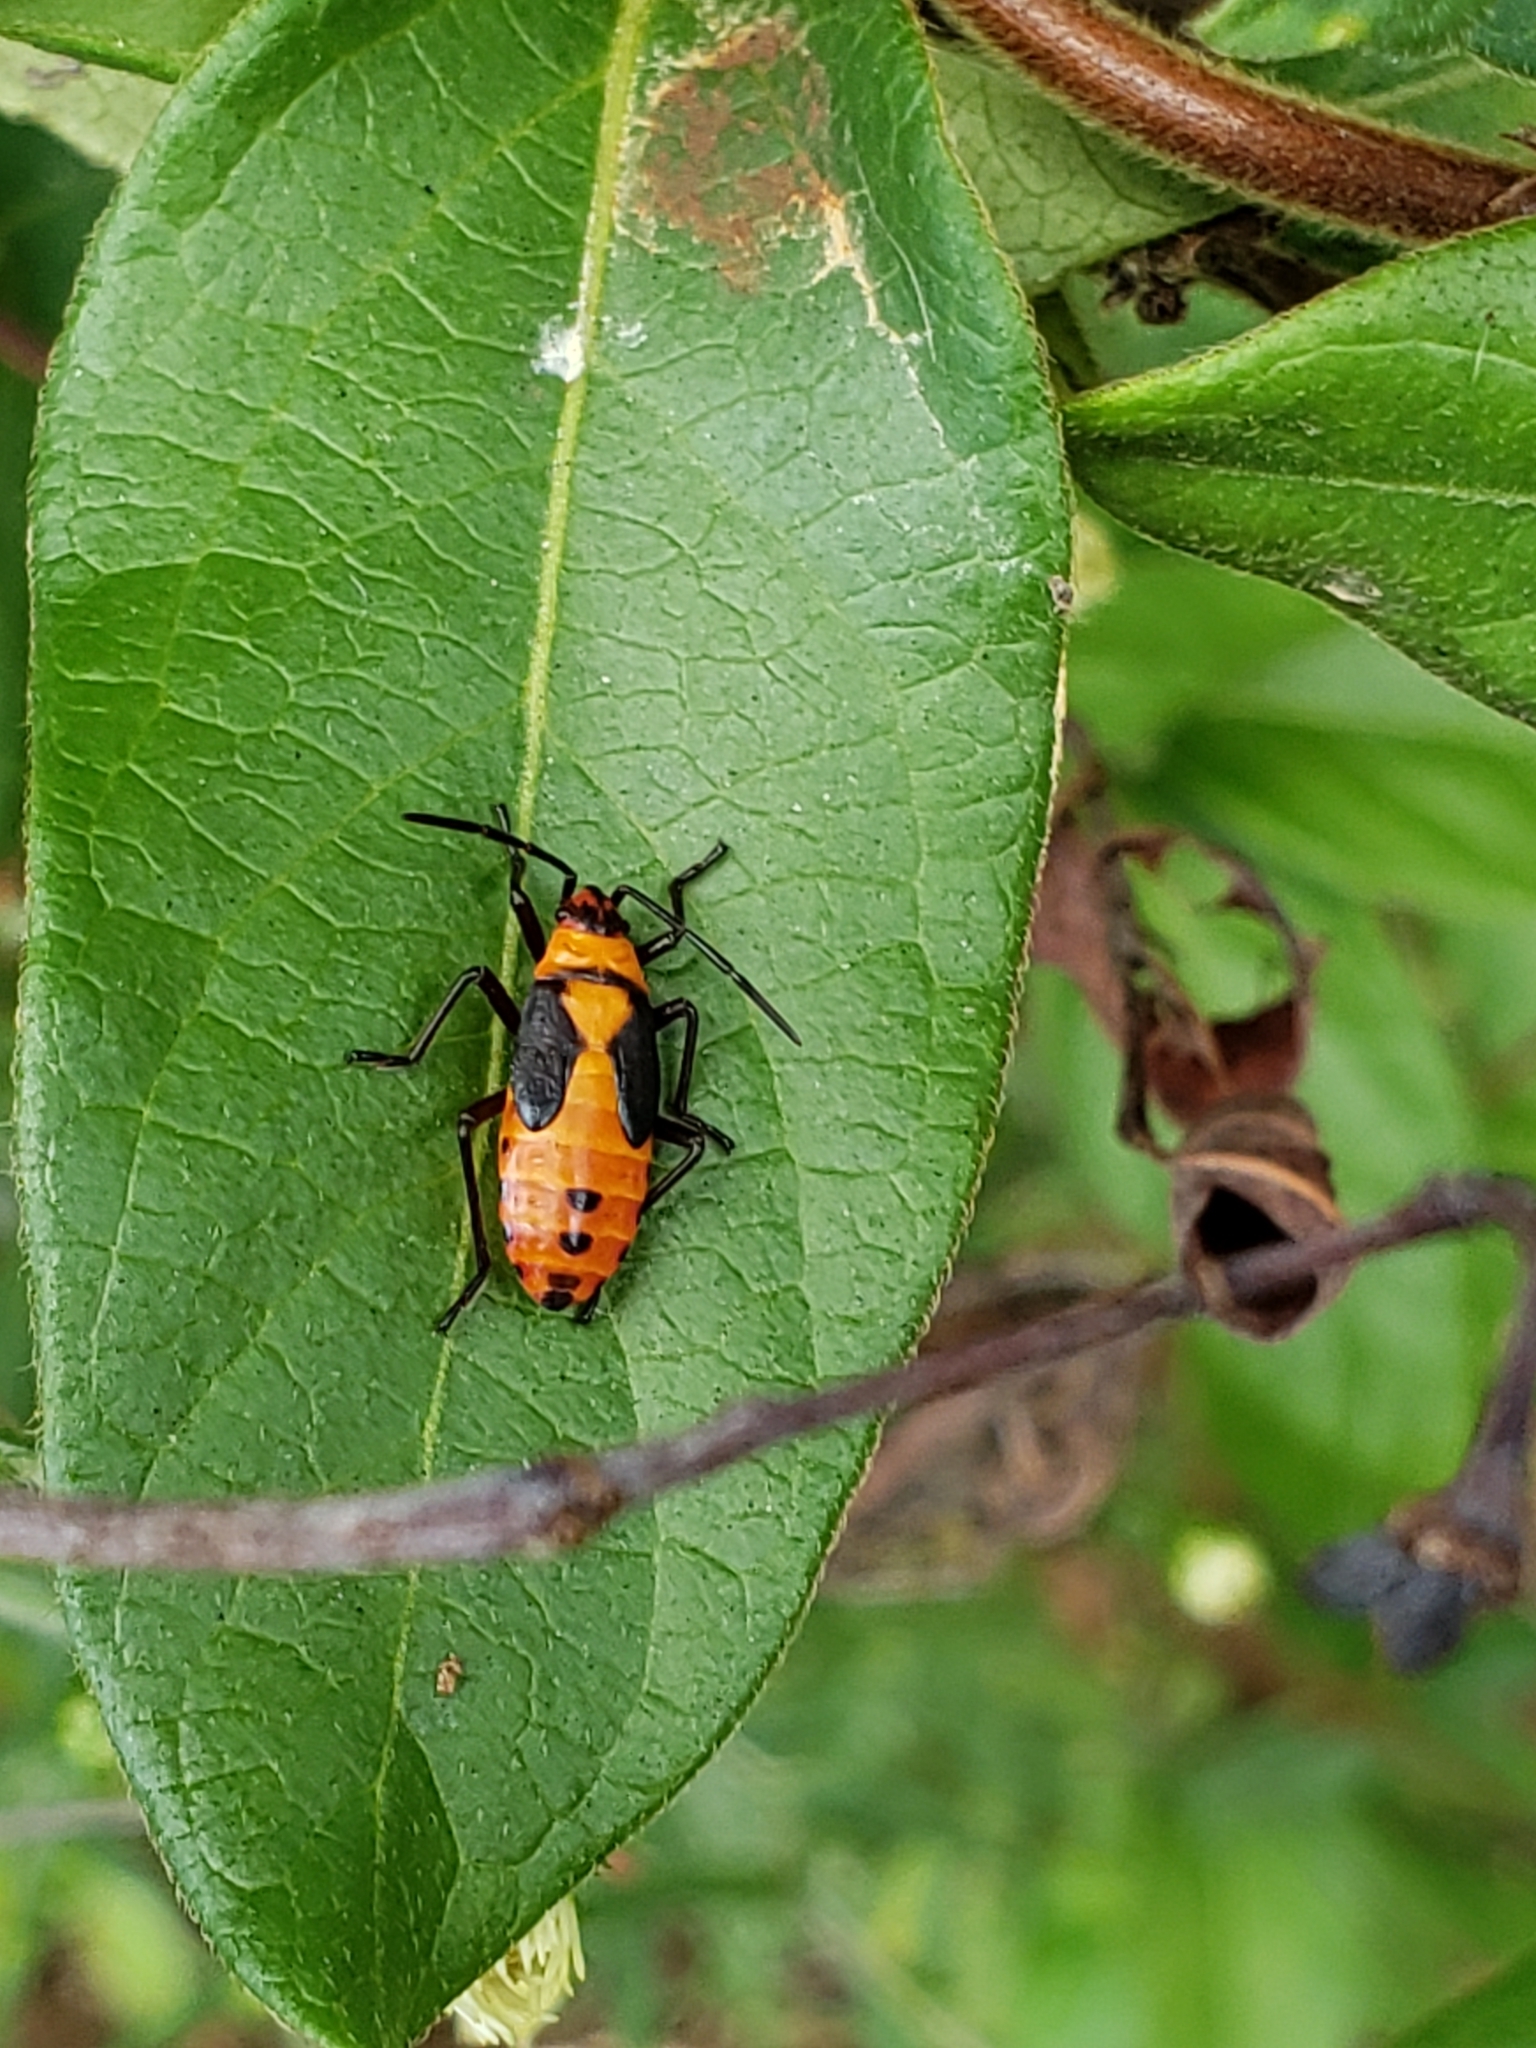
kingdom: Animalia
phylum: Arthropoda
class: Insecta
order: Hemiptera
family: Lygaeidae
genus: Oncopeltus
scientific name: Oncopeltus fasciatus
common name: Large milkweed bug
